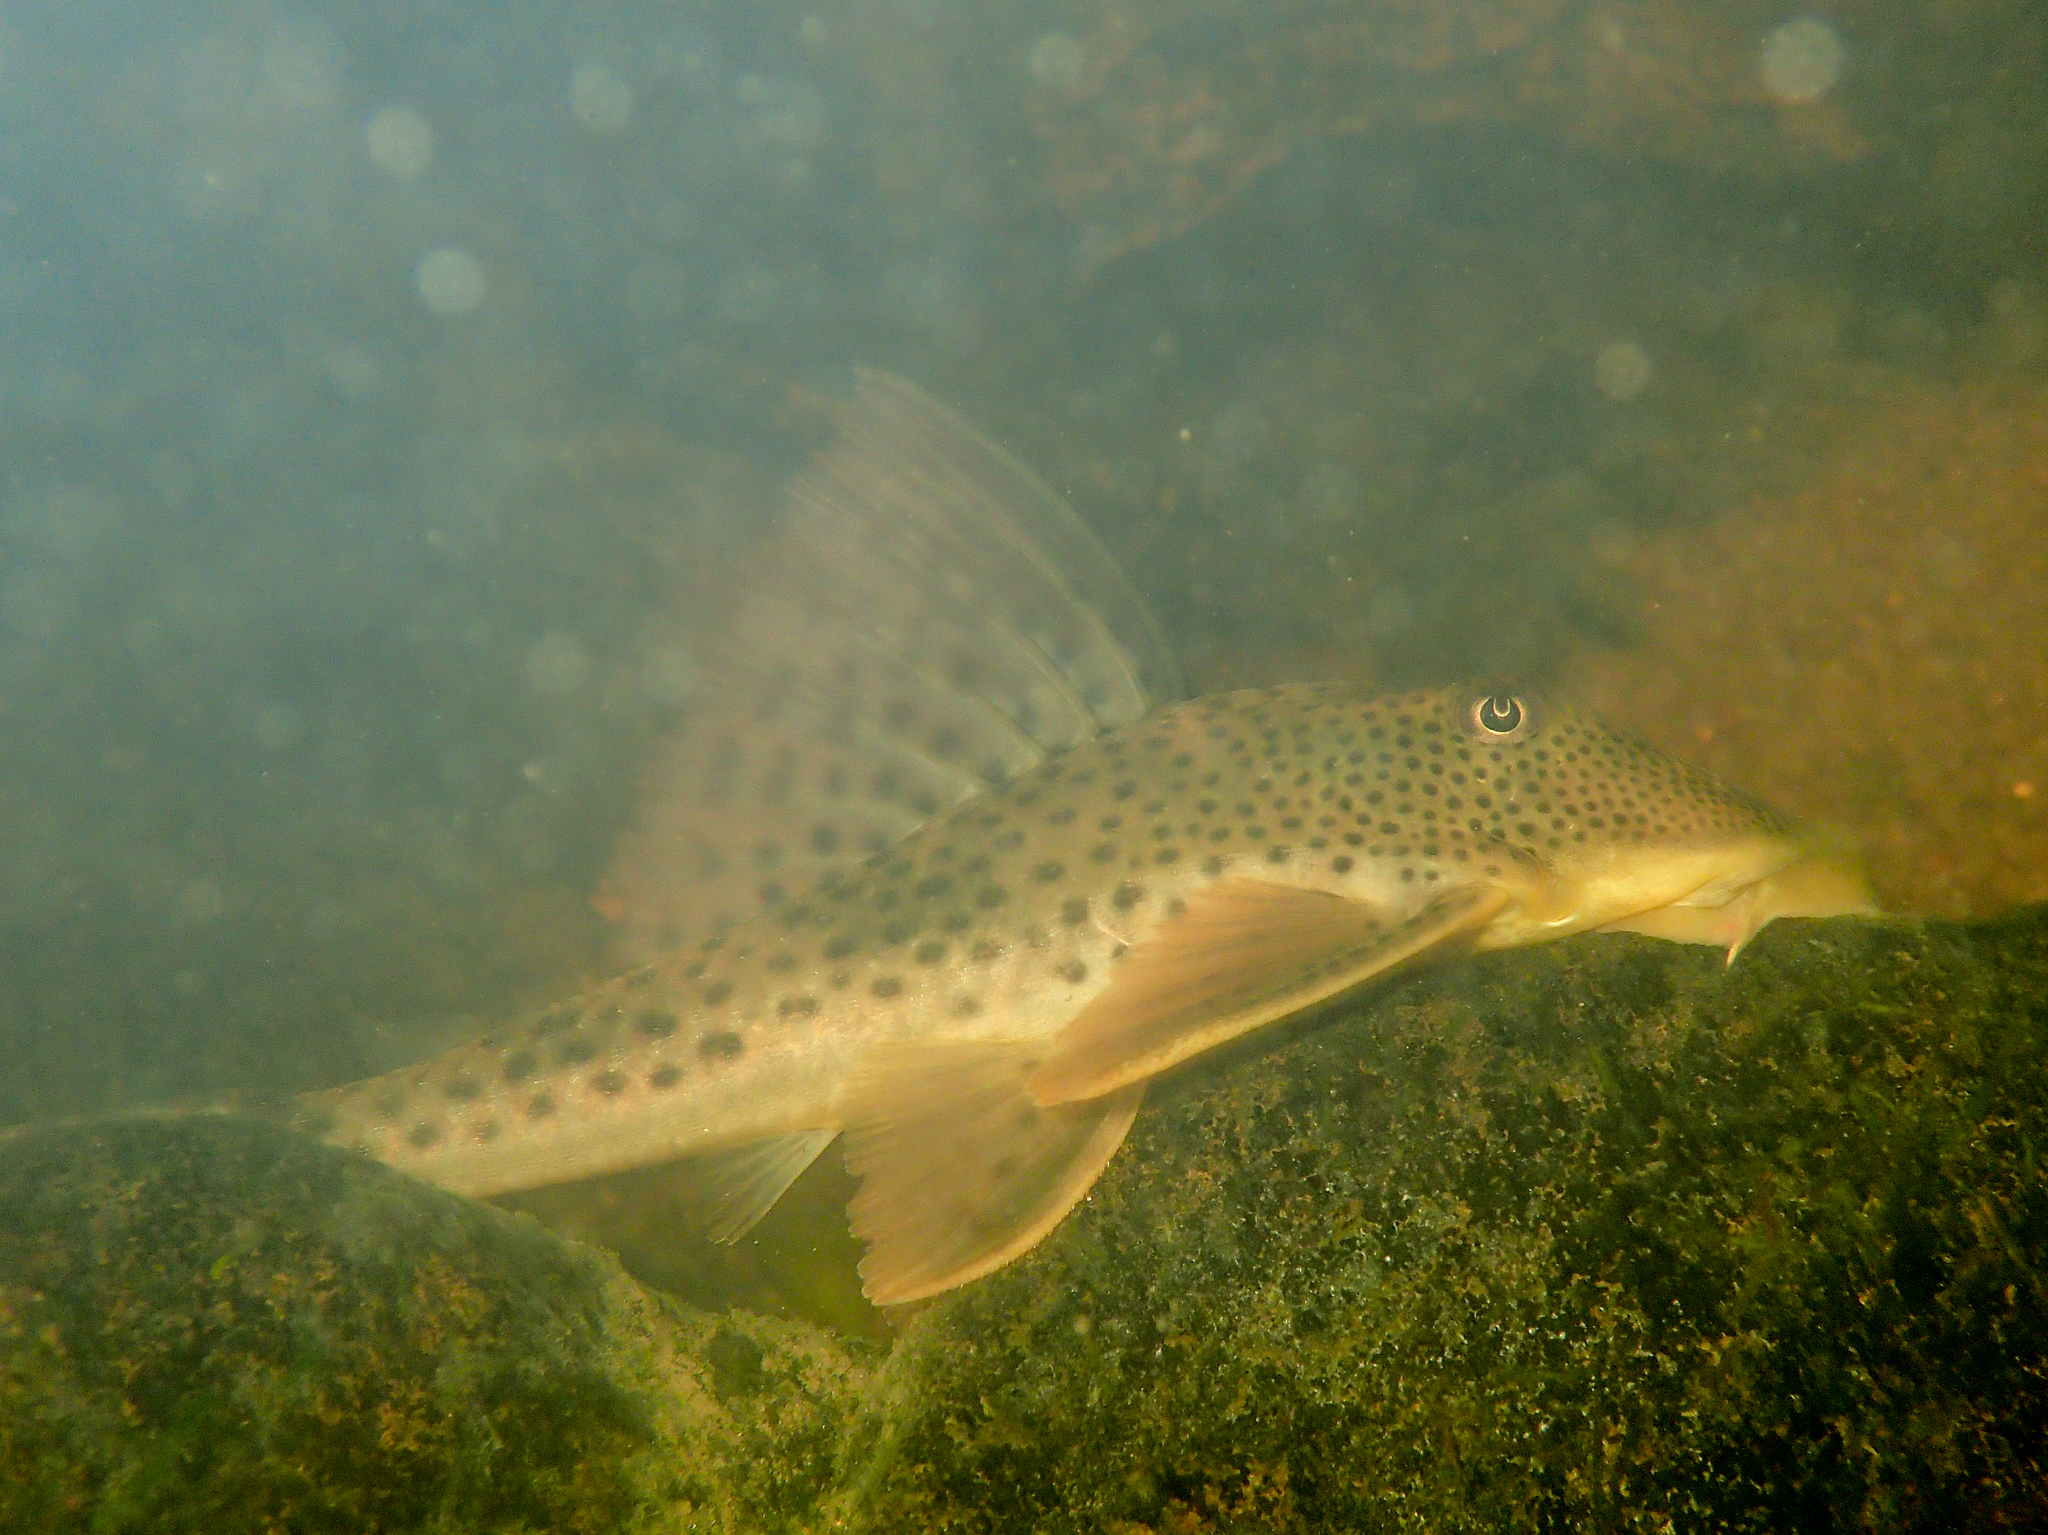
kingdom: Animalia
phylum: Chordata
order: Siluriformes
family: Loricariidae
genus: Hypostomus
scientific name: Hypostomus gymnorhynchus
